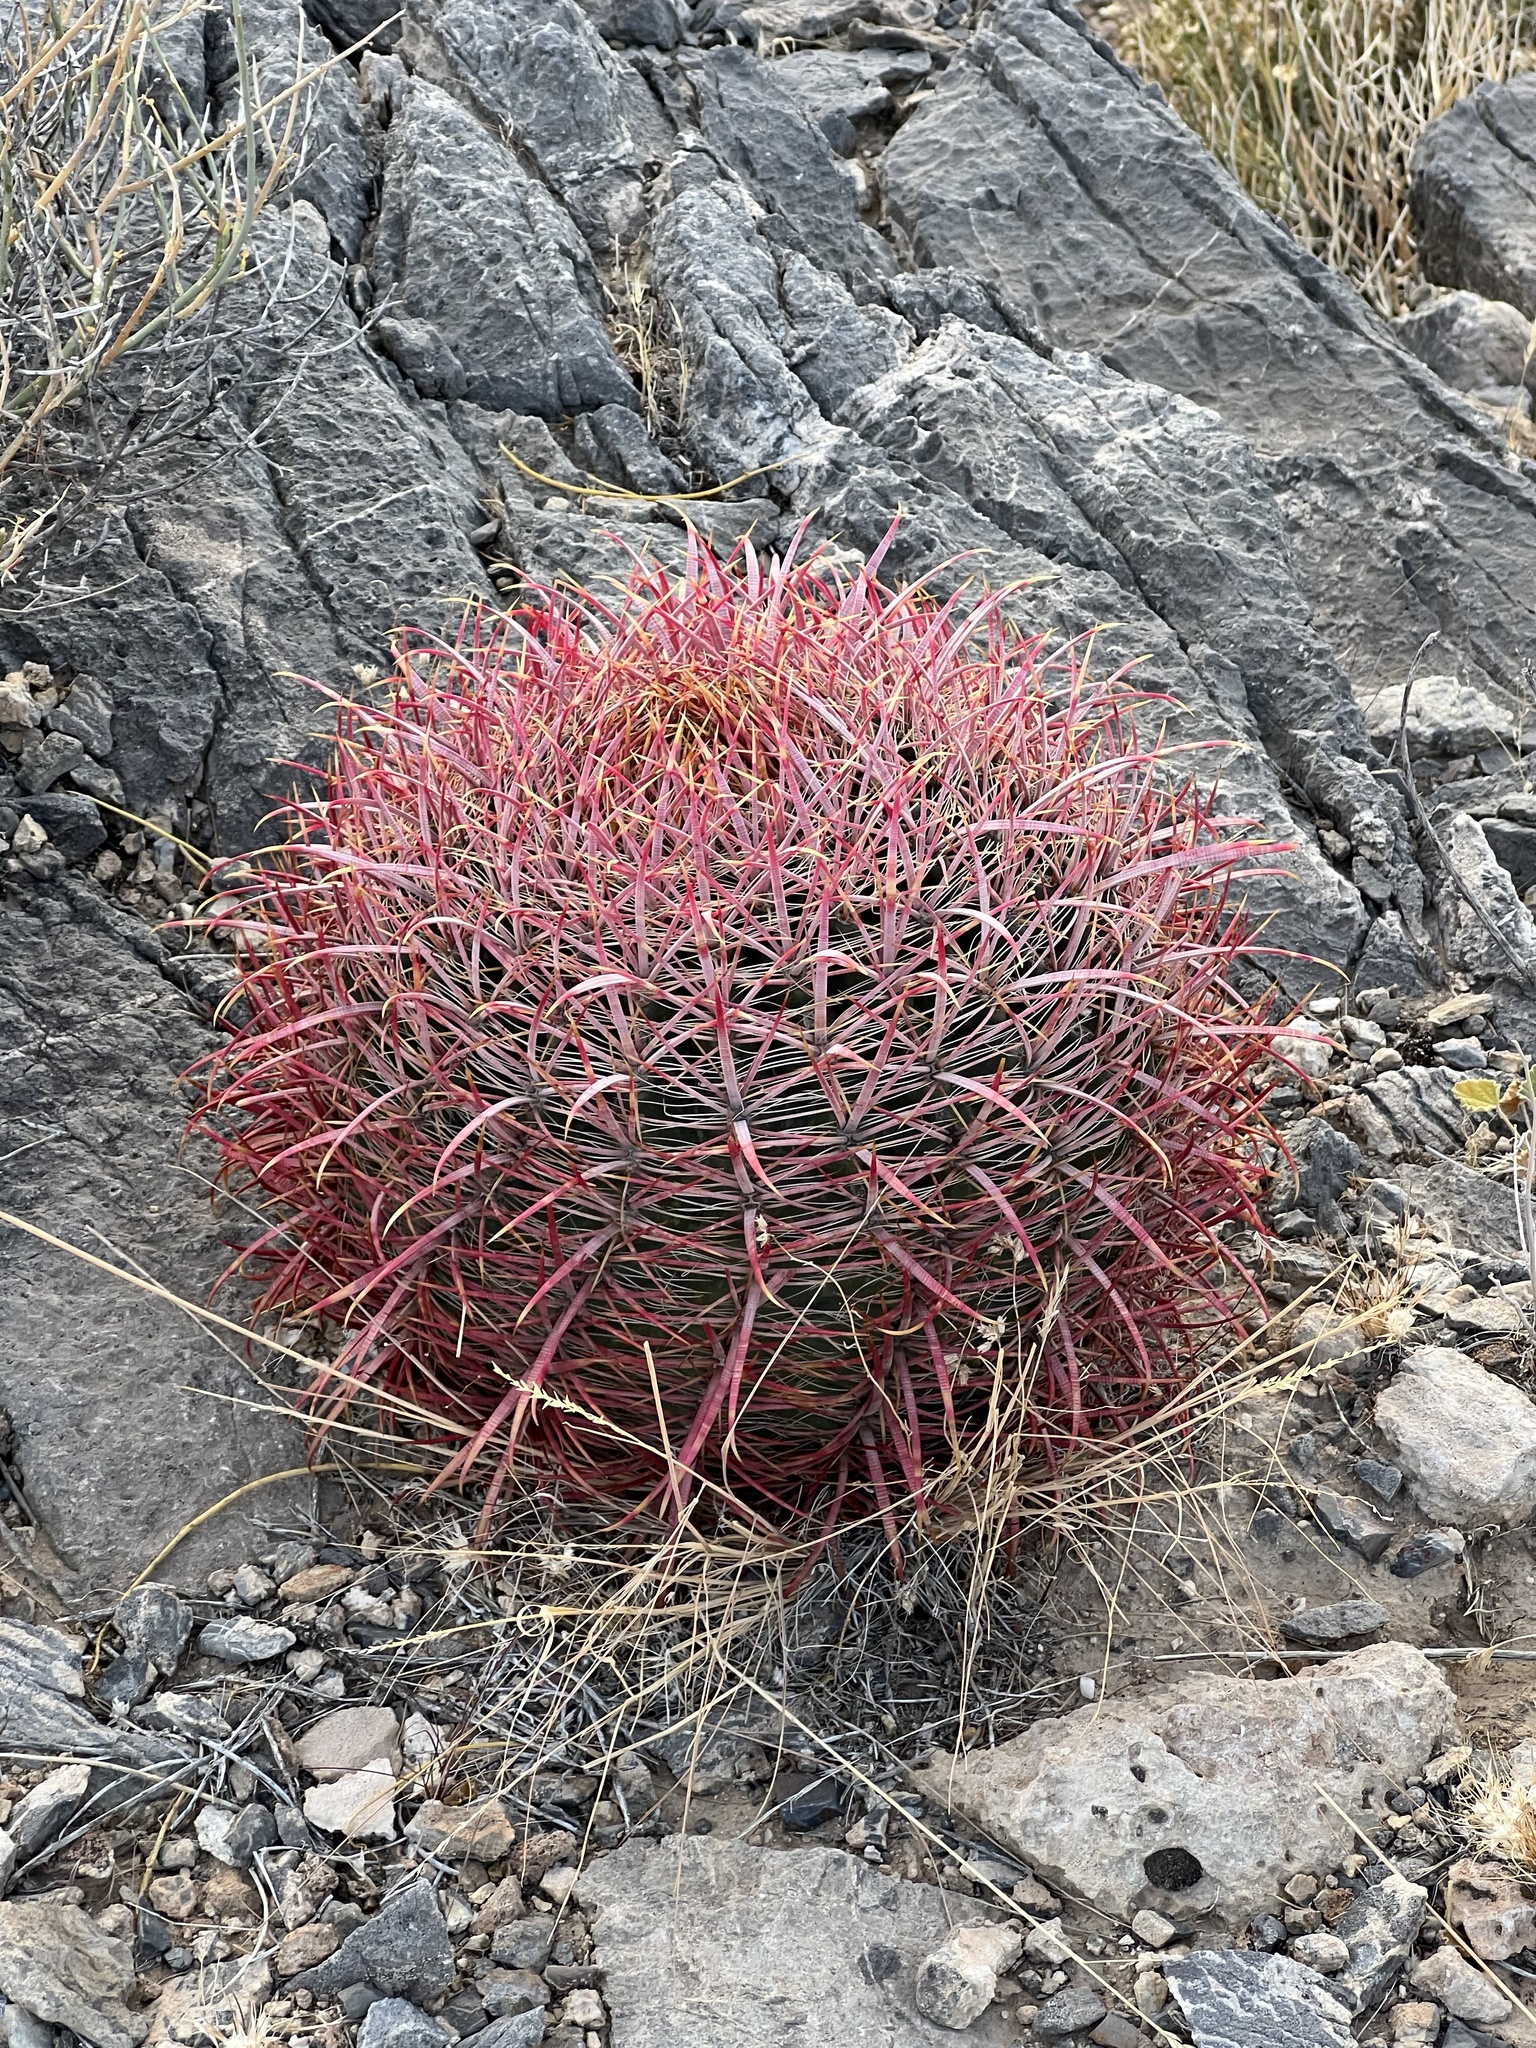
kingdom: Plantae
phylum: Tracheophyta
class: Magnoliopsida
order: Caryophyllales
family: Cactaceae
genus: Ferocactus
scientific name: Ferocactus cylindraceus
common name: California barrel cactus
